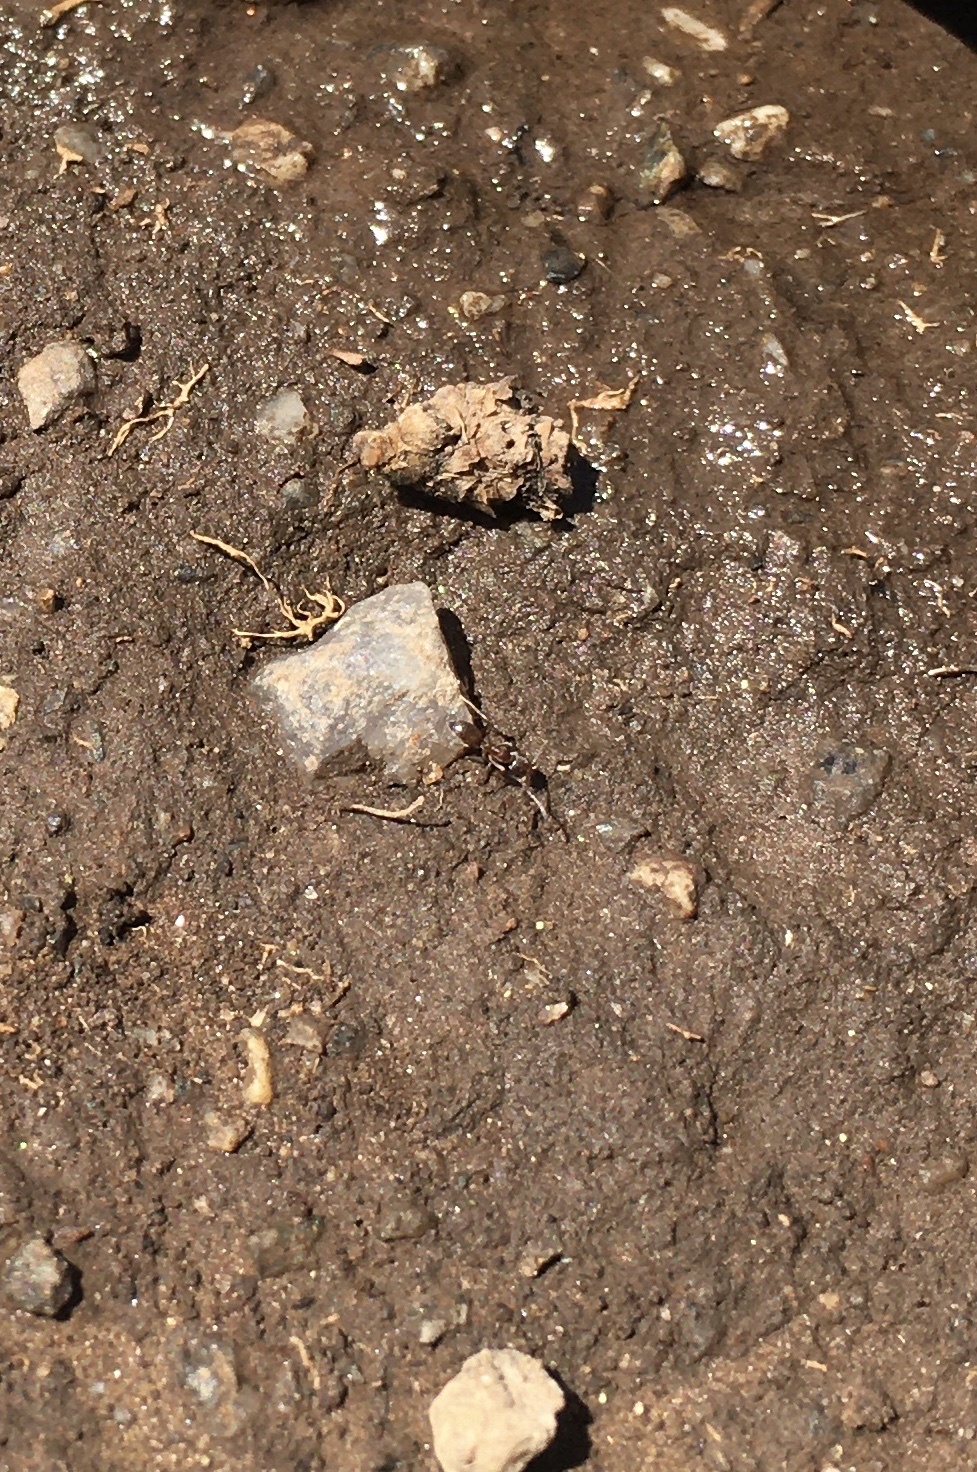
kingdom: Animalia
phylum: Arthropoda
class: Insecta
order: Hymenoptera
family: Formicidae
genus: Linepithema
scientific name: Linepithema humile
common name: Argentine ant
